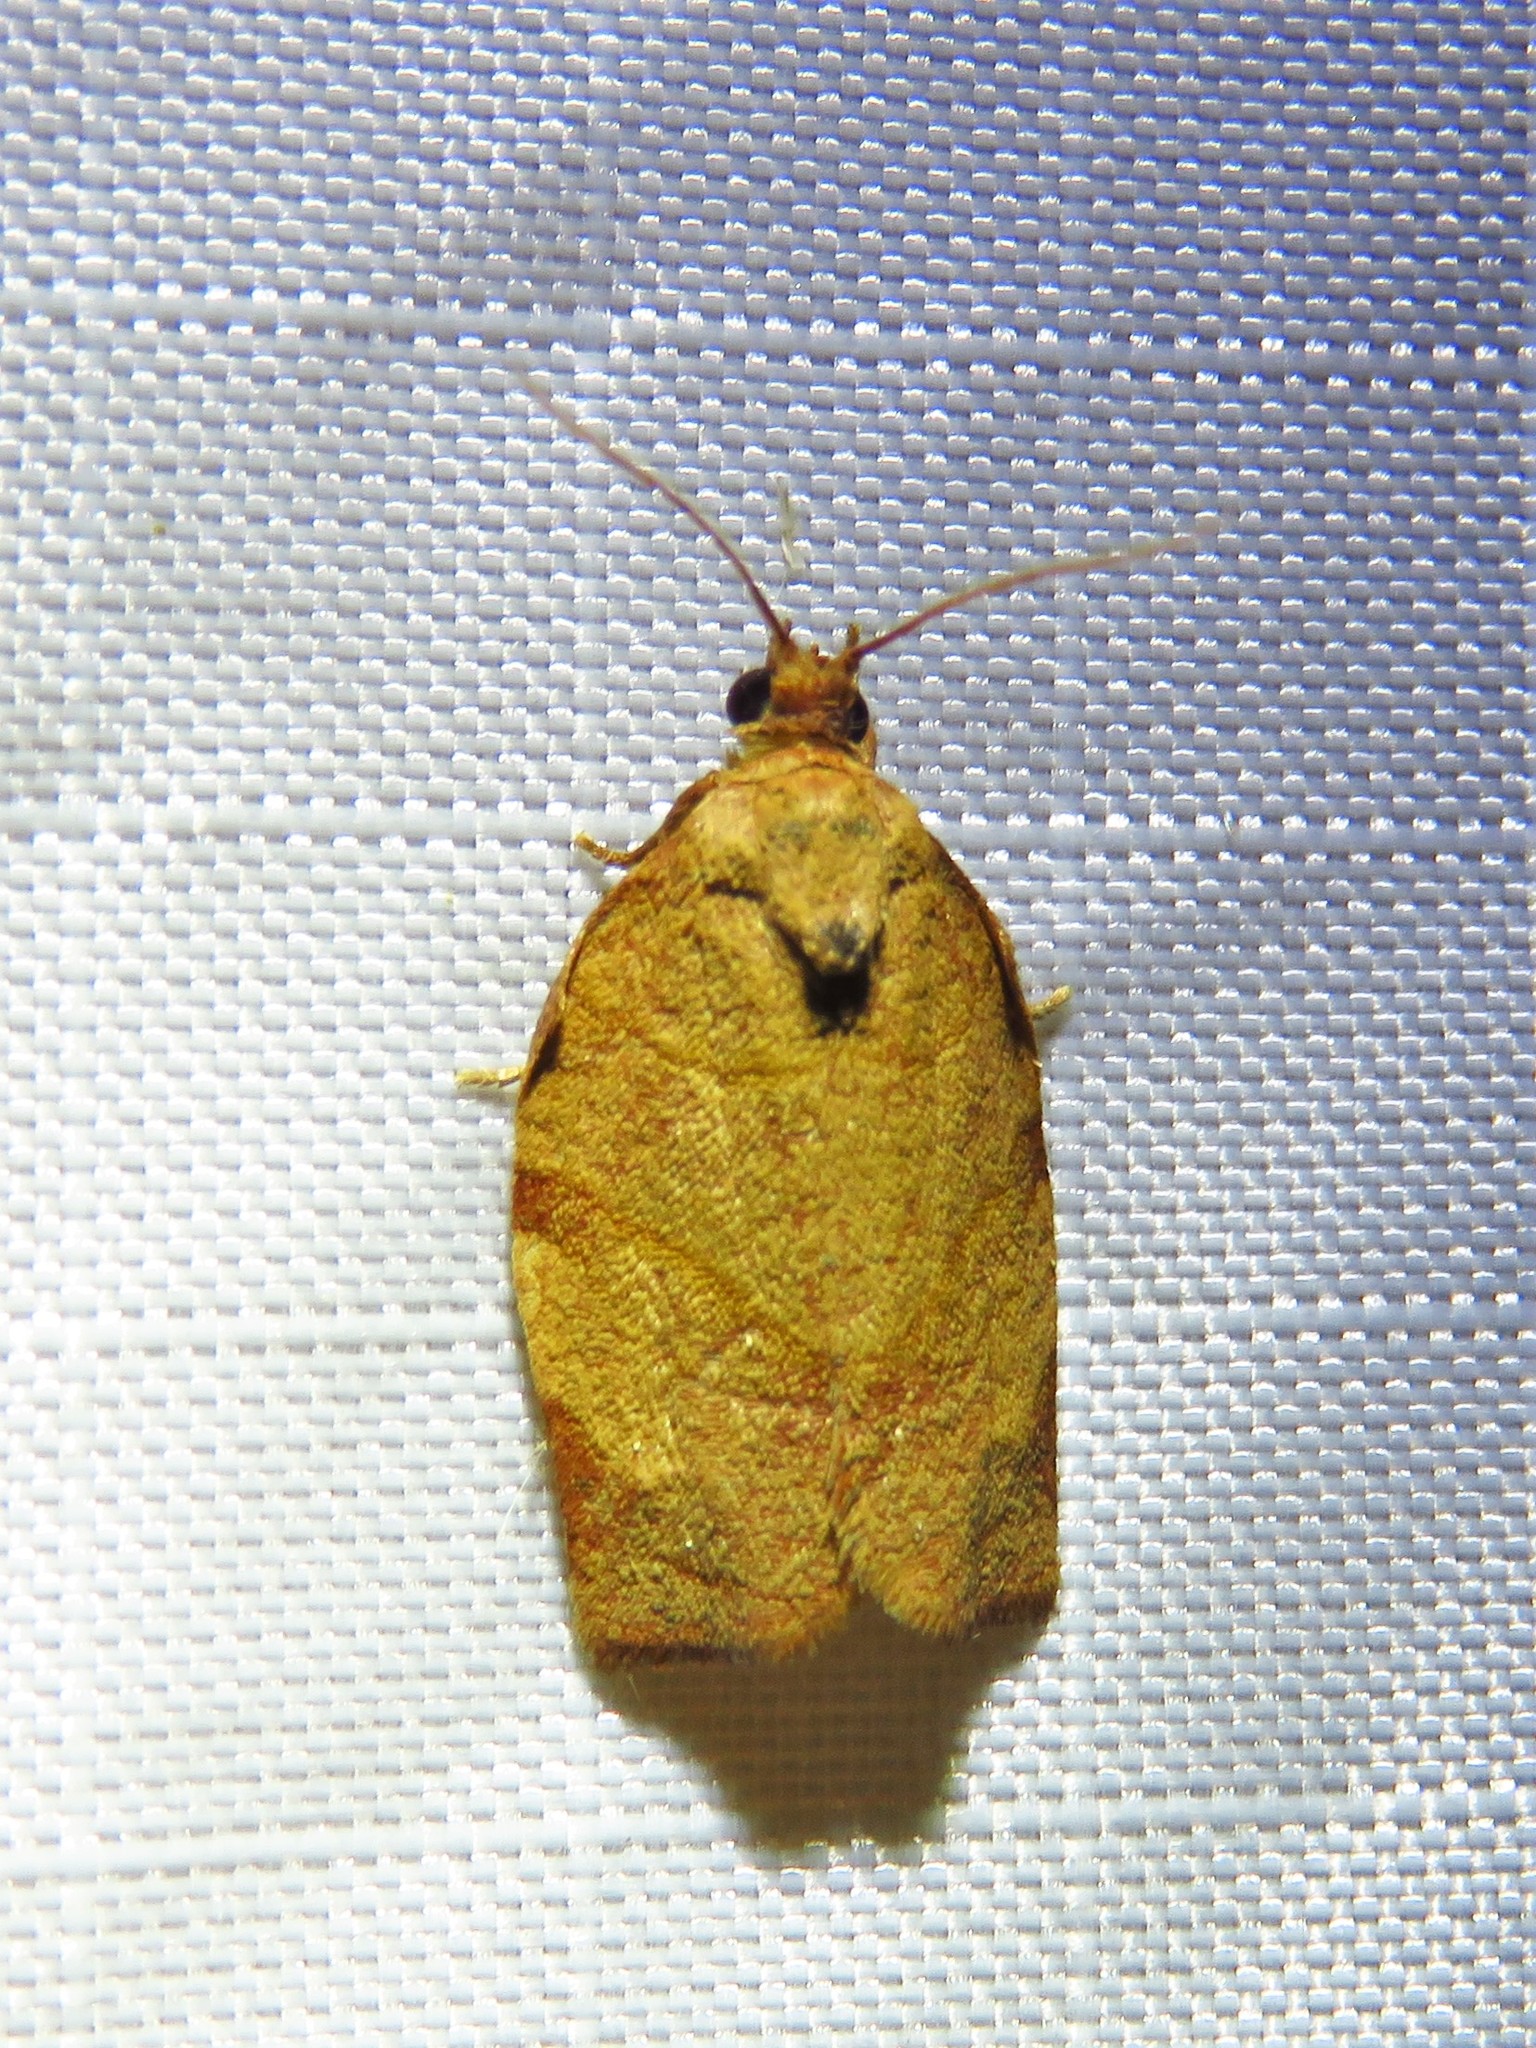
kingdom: Animalia
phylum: Arthropoda
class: Insecta
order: Lepidoptera
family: Tortricidae
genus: Choristoneura
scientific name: Choristoneura rosaceana
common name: Oblique-banded leafroller moth
